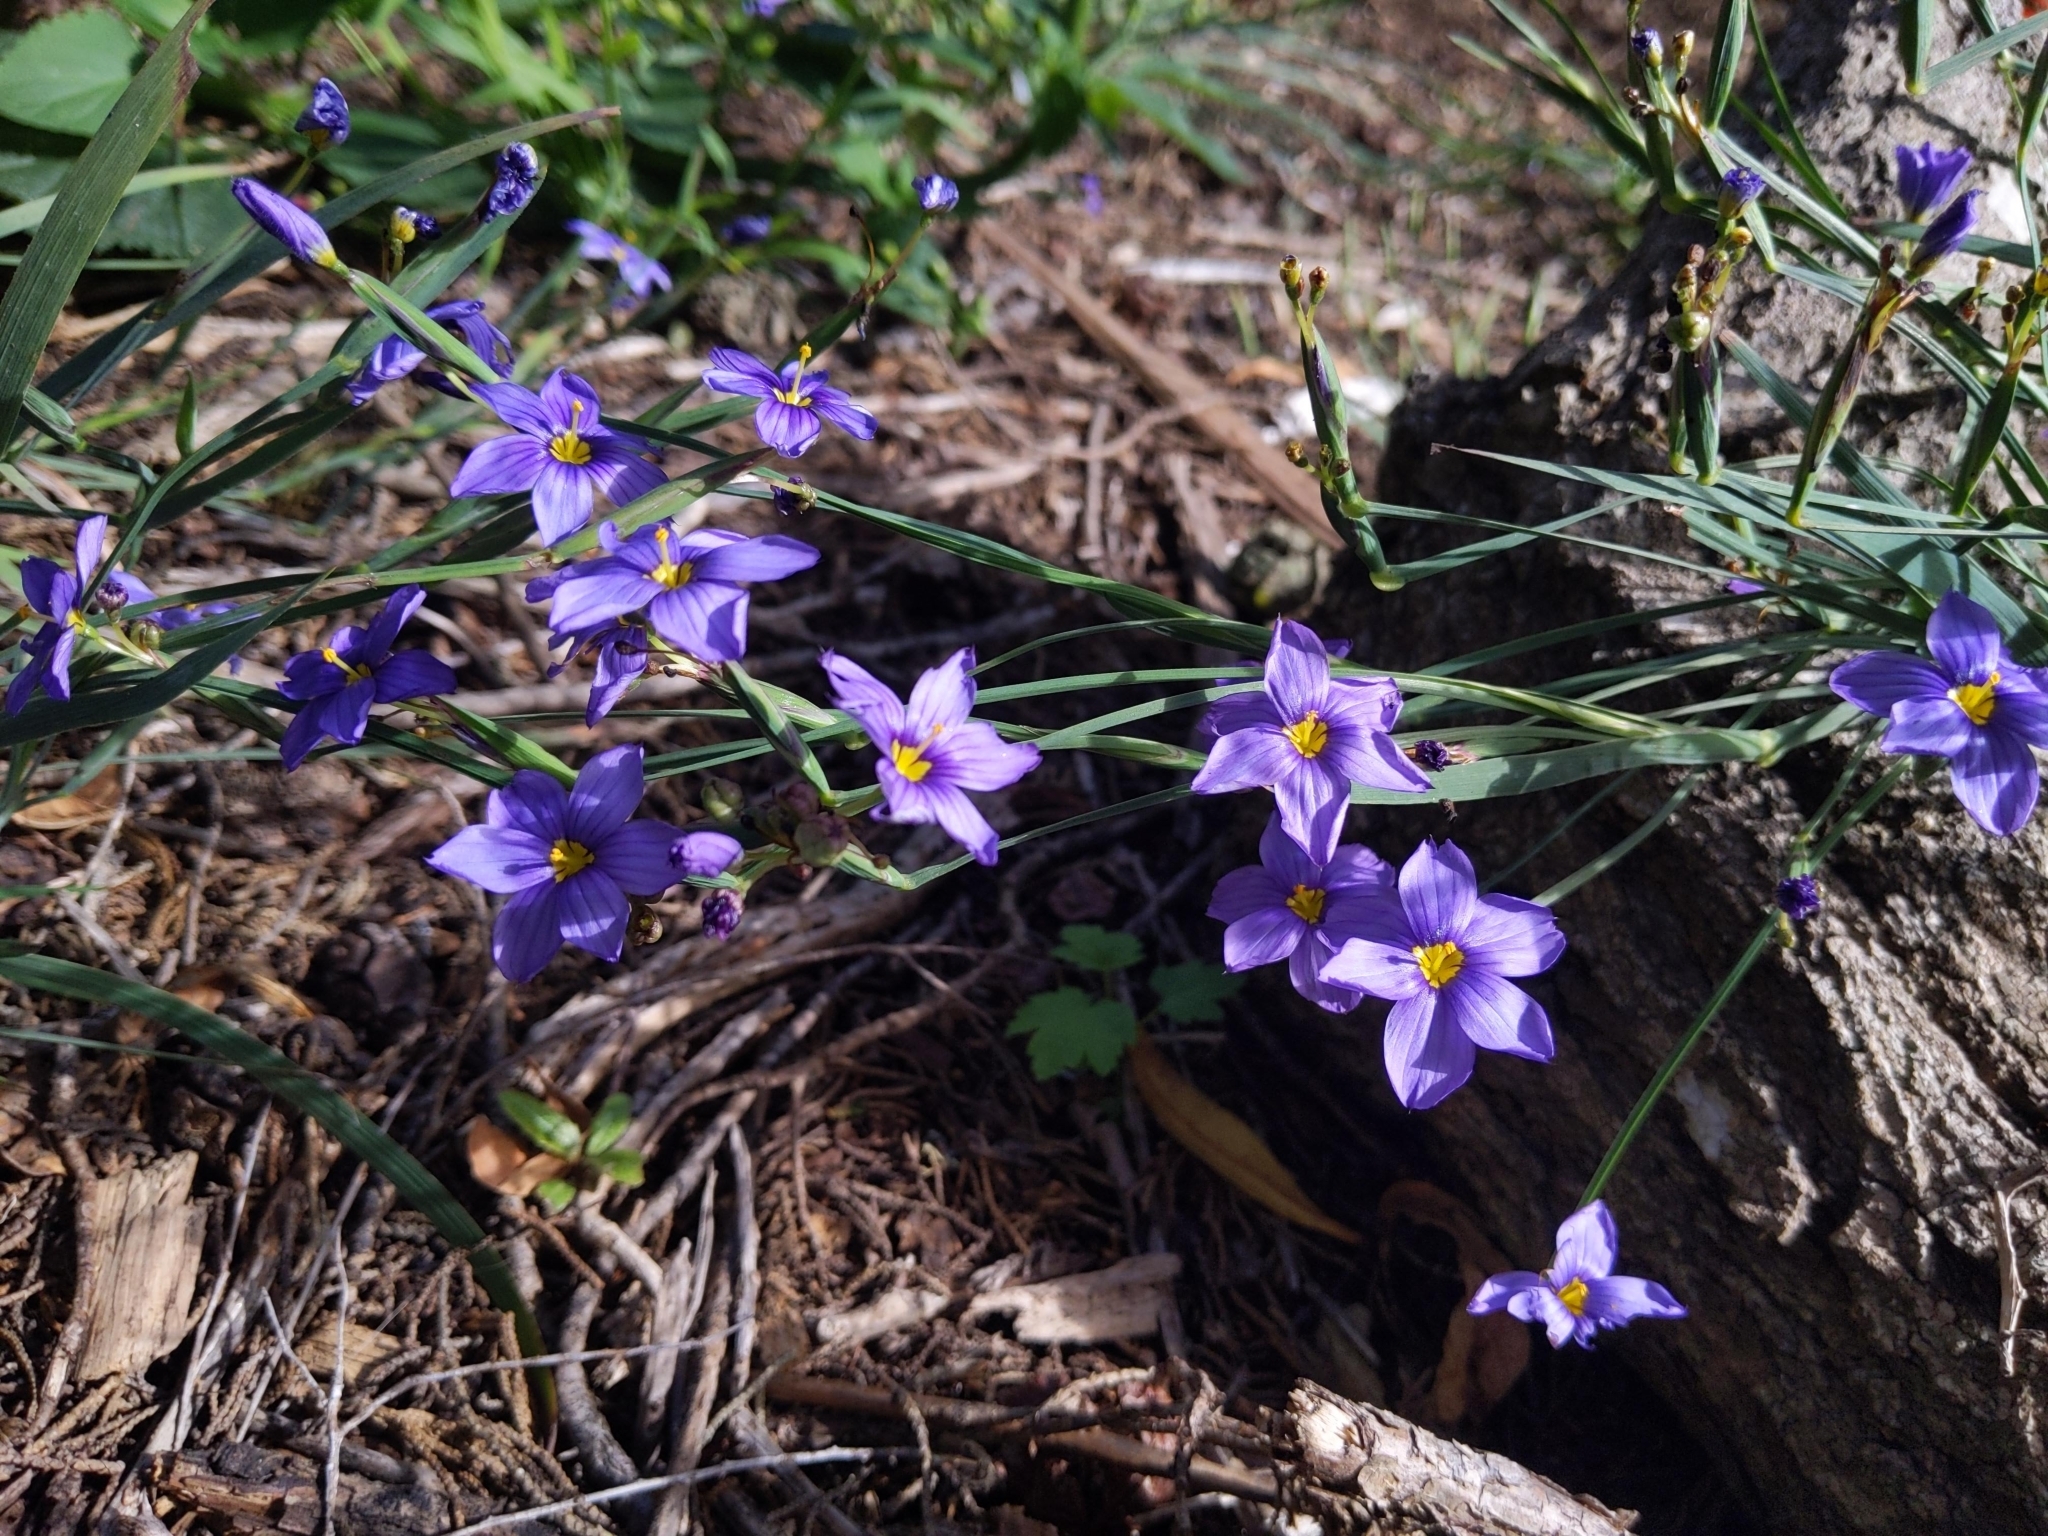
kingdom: Plantae
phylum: Tracheophyta
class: Liliopsida
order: Asparagales
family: Iridaceae
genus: Sisyrinchium
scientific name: Sisyrinchium bellum
